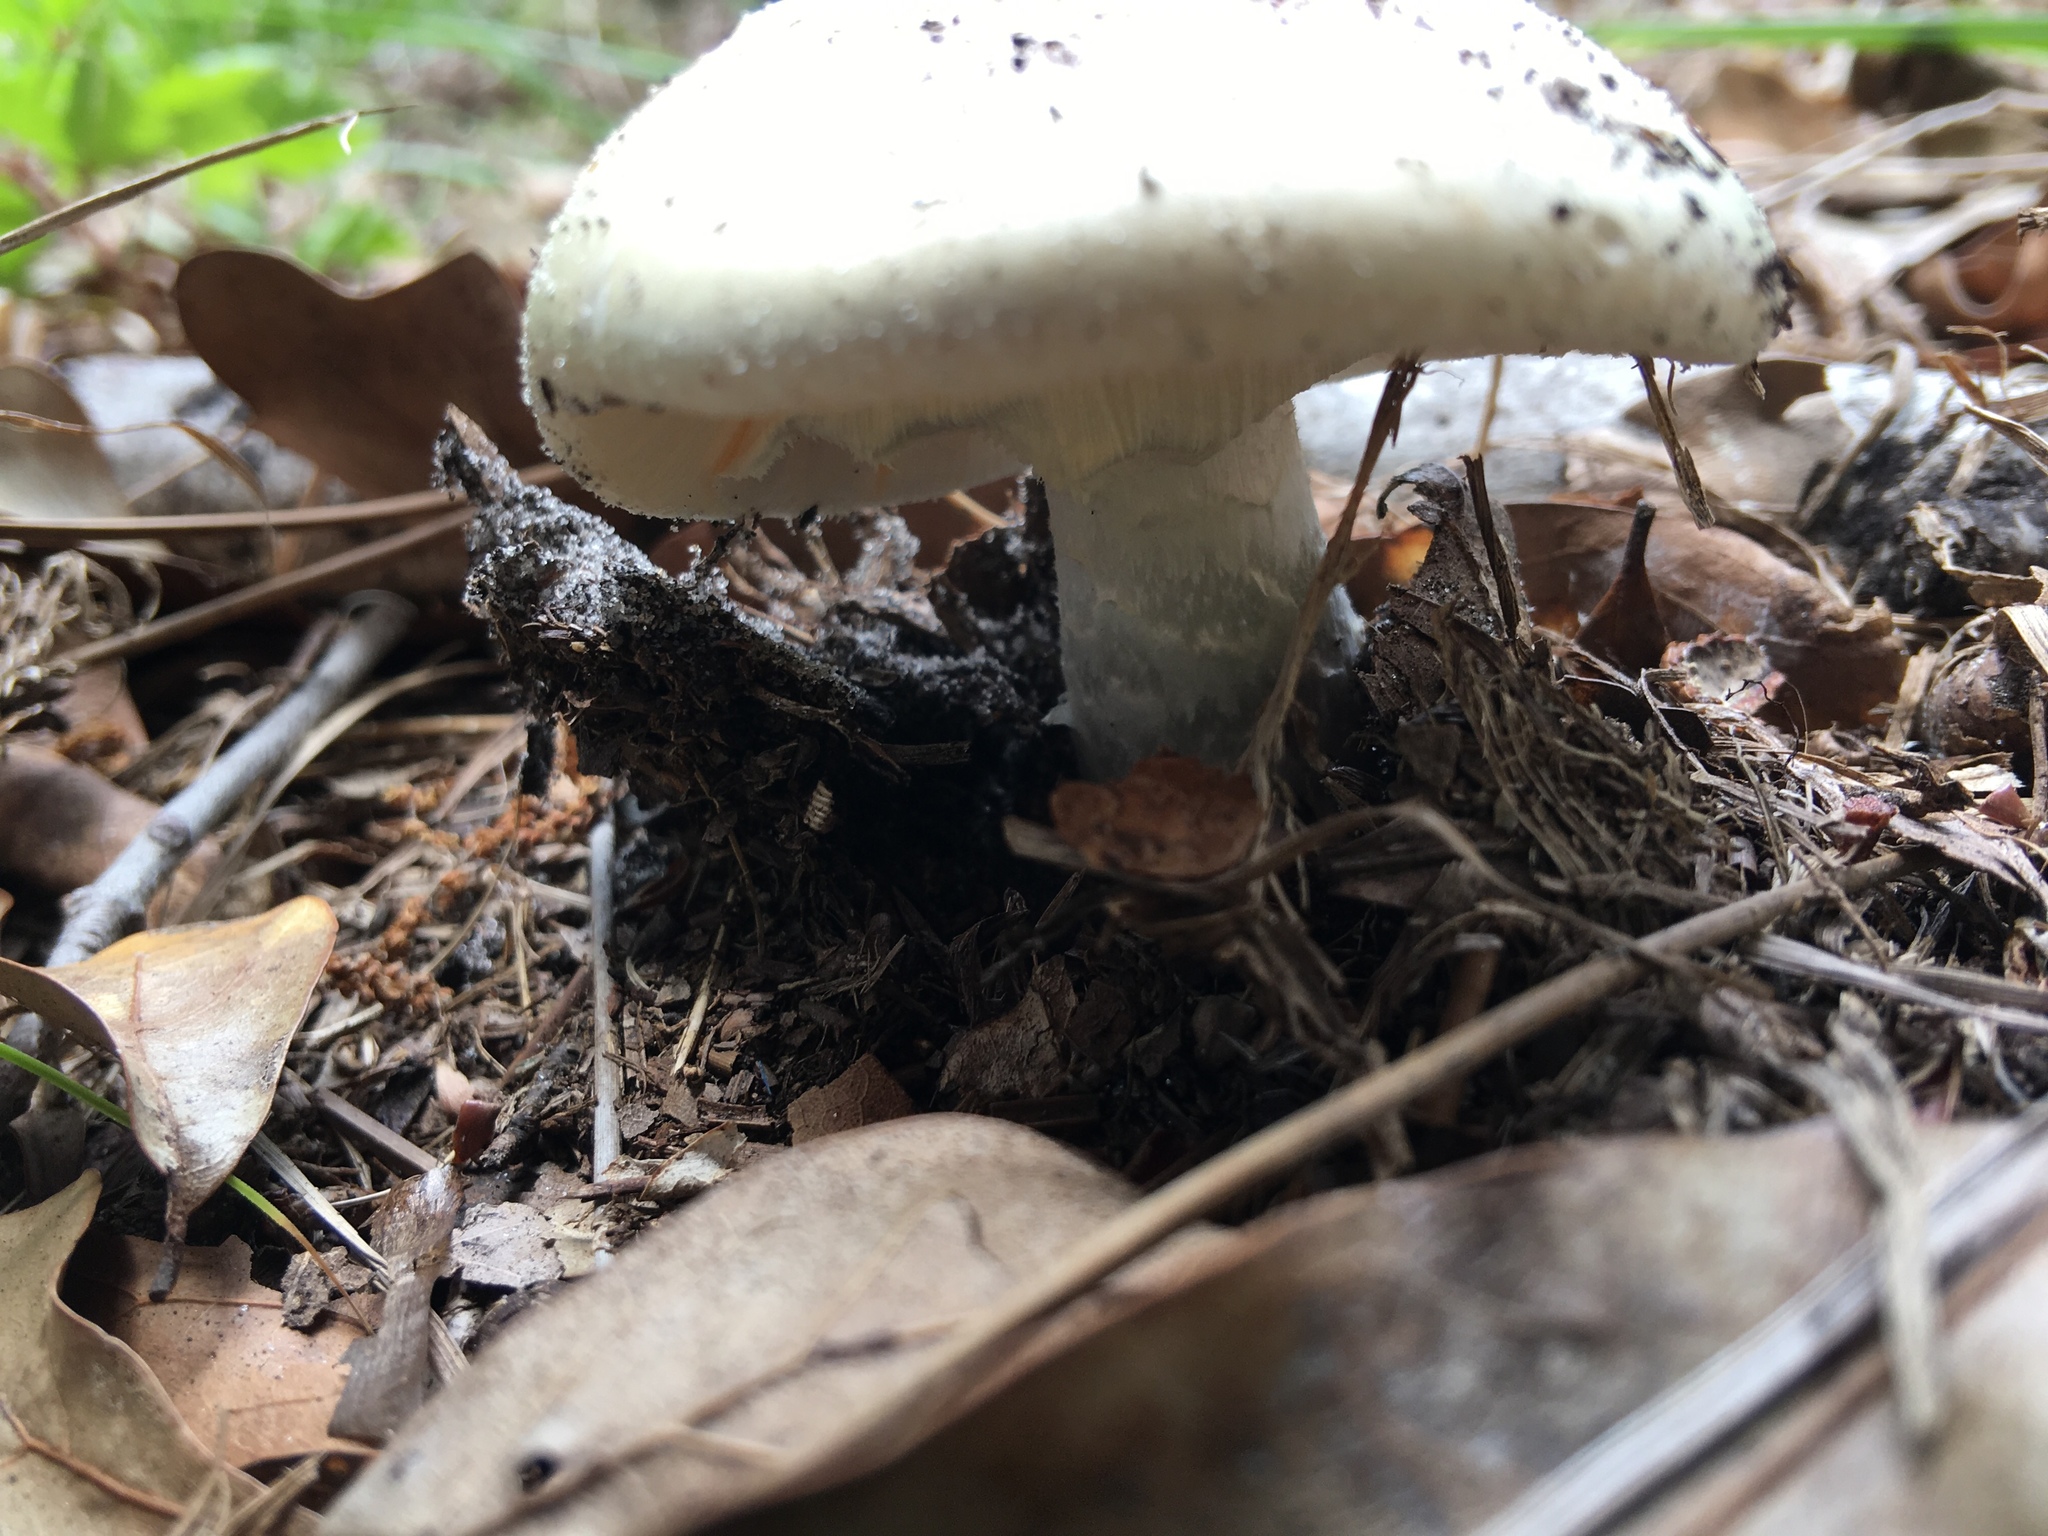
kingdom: Fungi
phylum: Basidiomycota
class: Agaricomycetes
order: Agaricales
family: Amanitaceae
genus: Amanita
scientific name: Amanita lavendula
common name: Coker's lavender staining amanita
